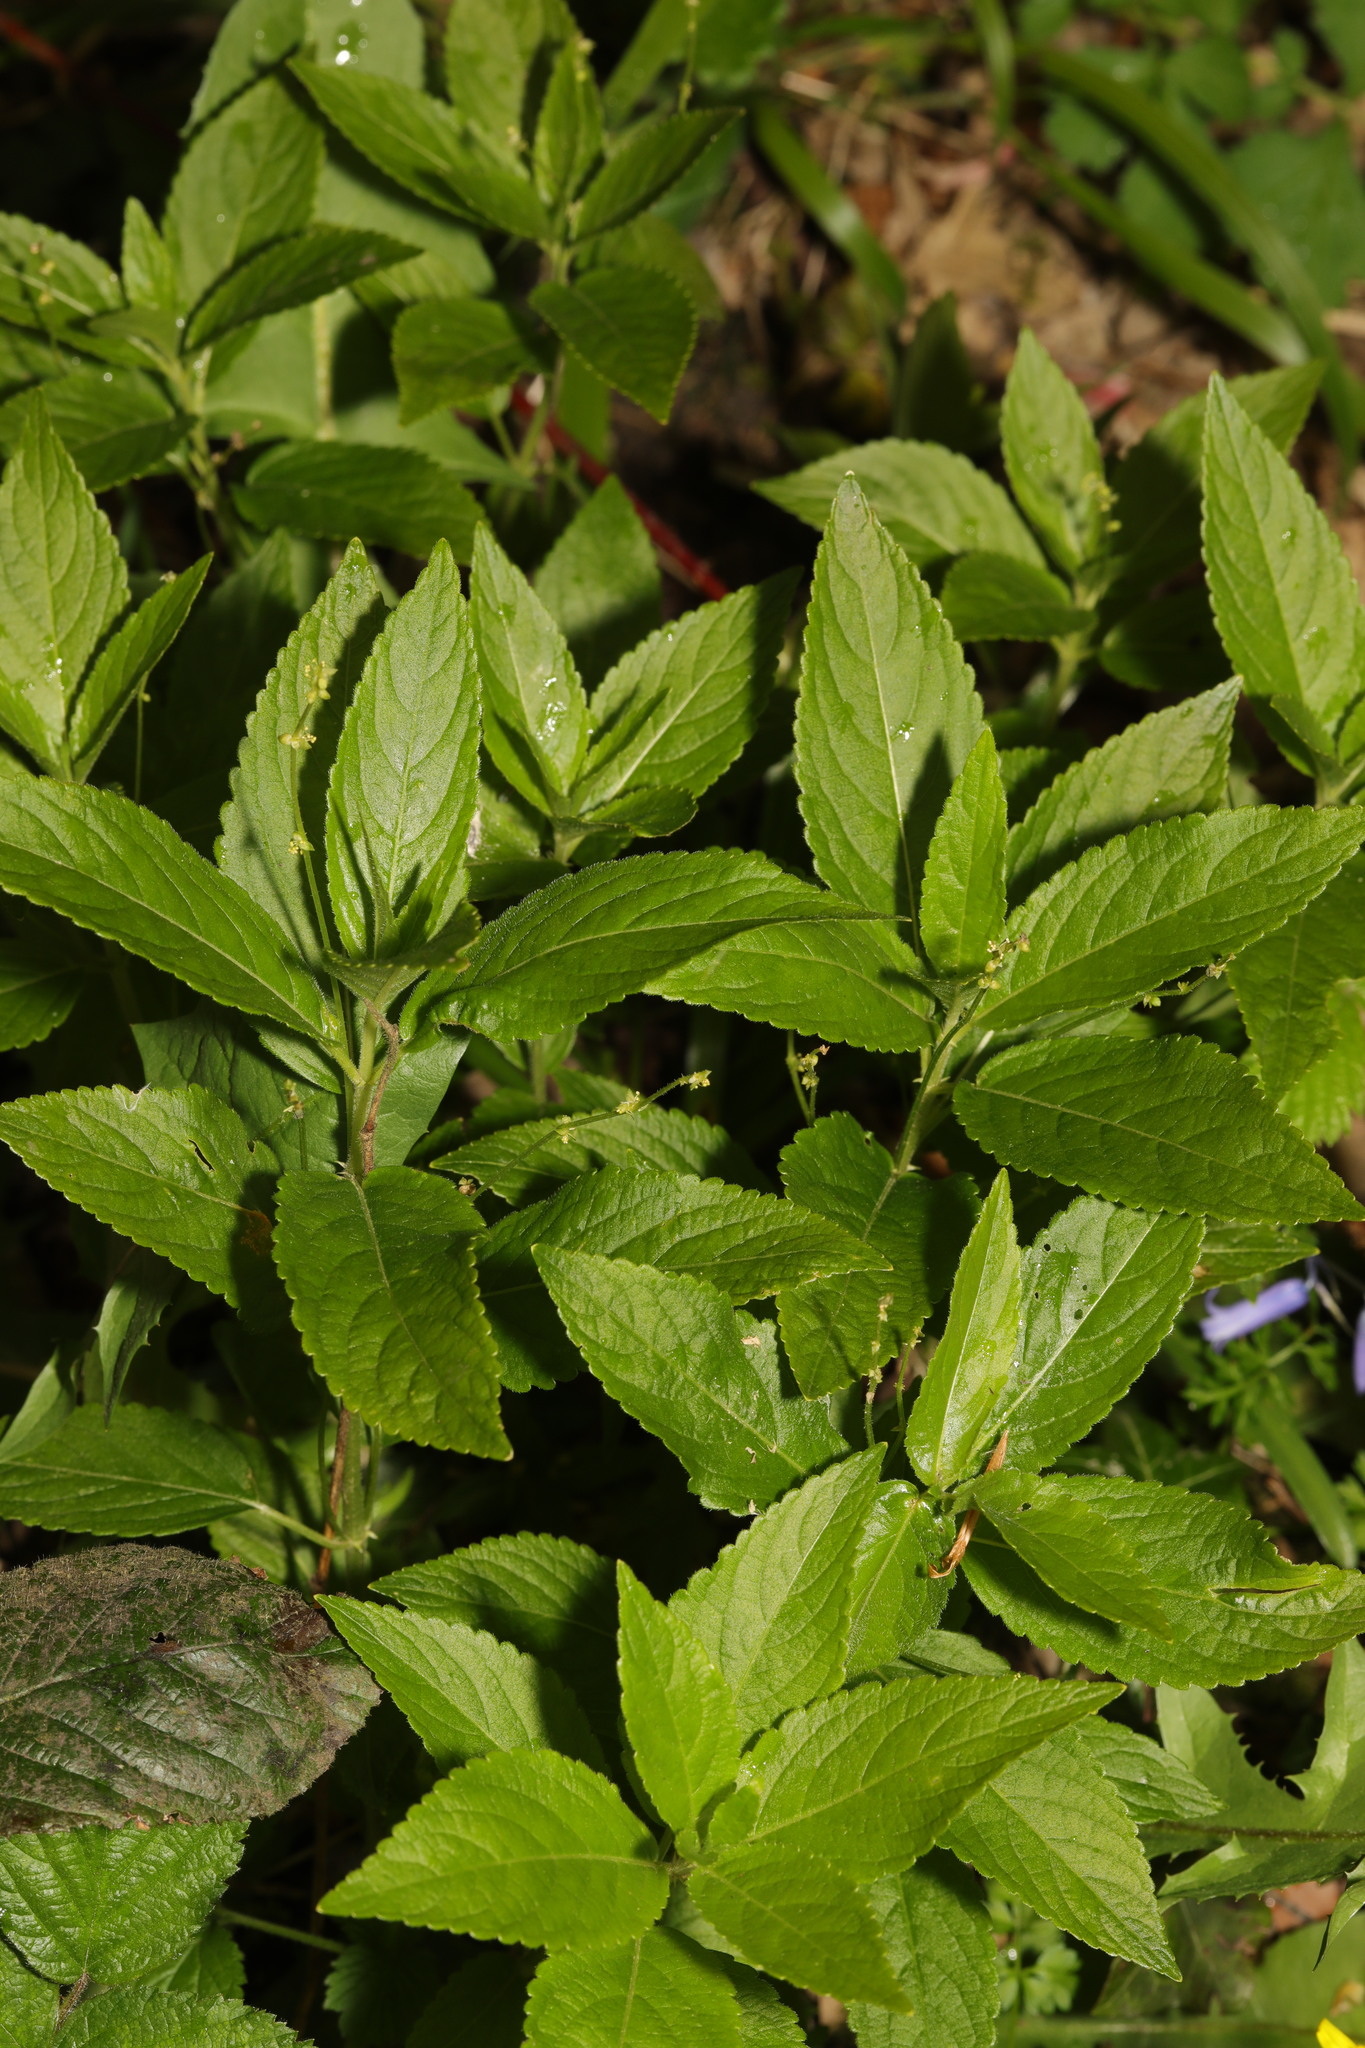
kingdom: Plantae
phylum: Tracheophyta
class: Magnoliopsida
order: Malpighiales
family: Euphorbiaceae
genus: Mercurialis
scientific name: Mercurialis perennis
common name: Dog mercury
